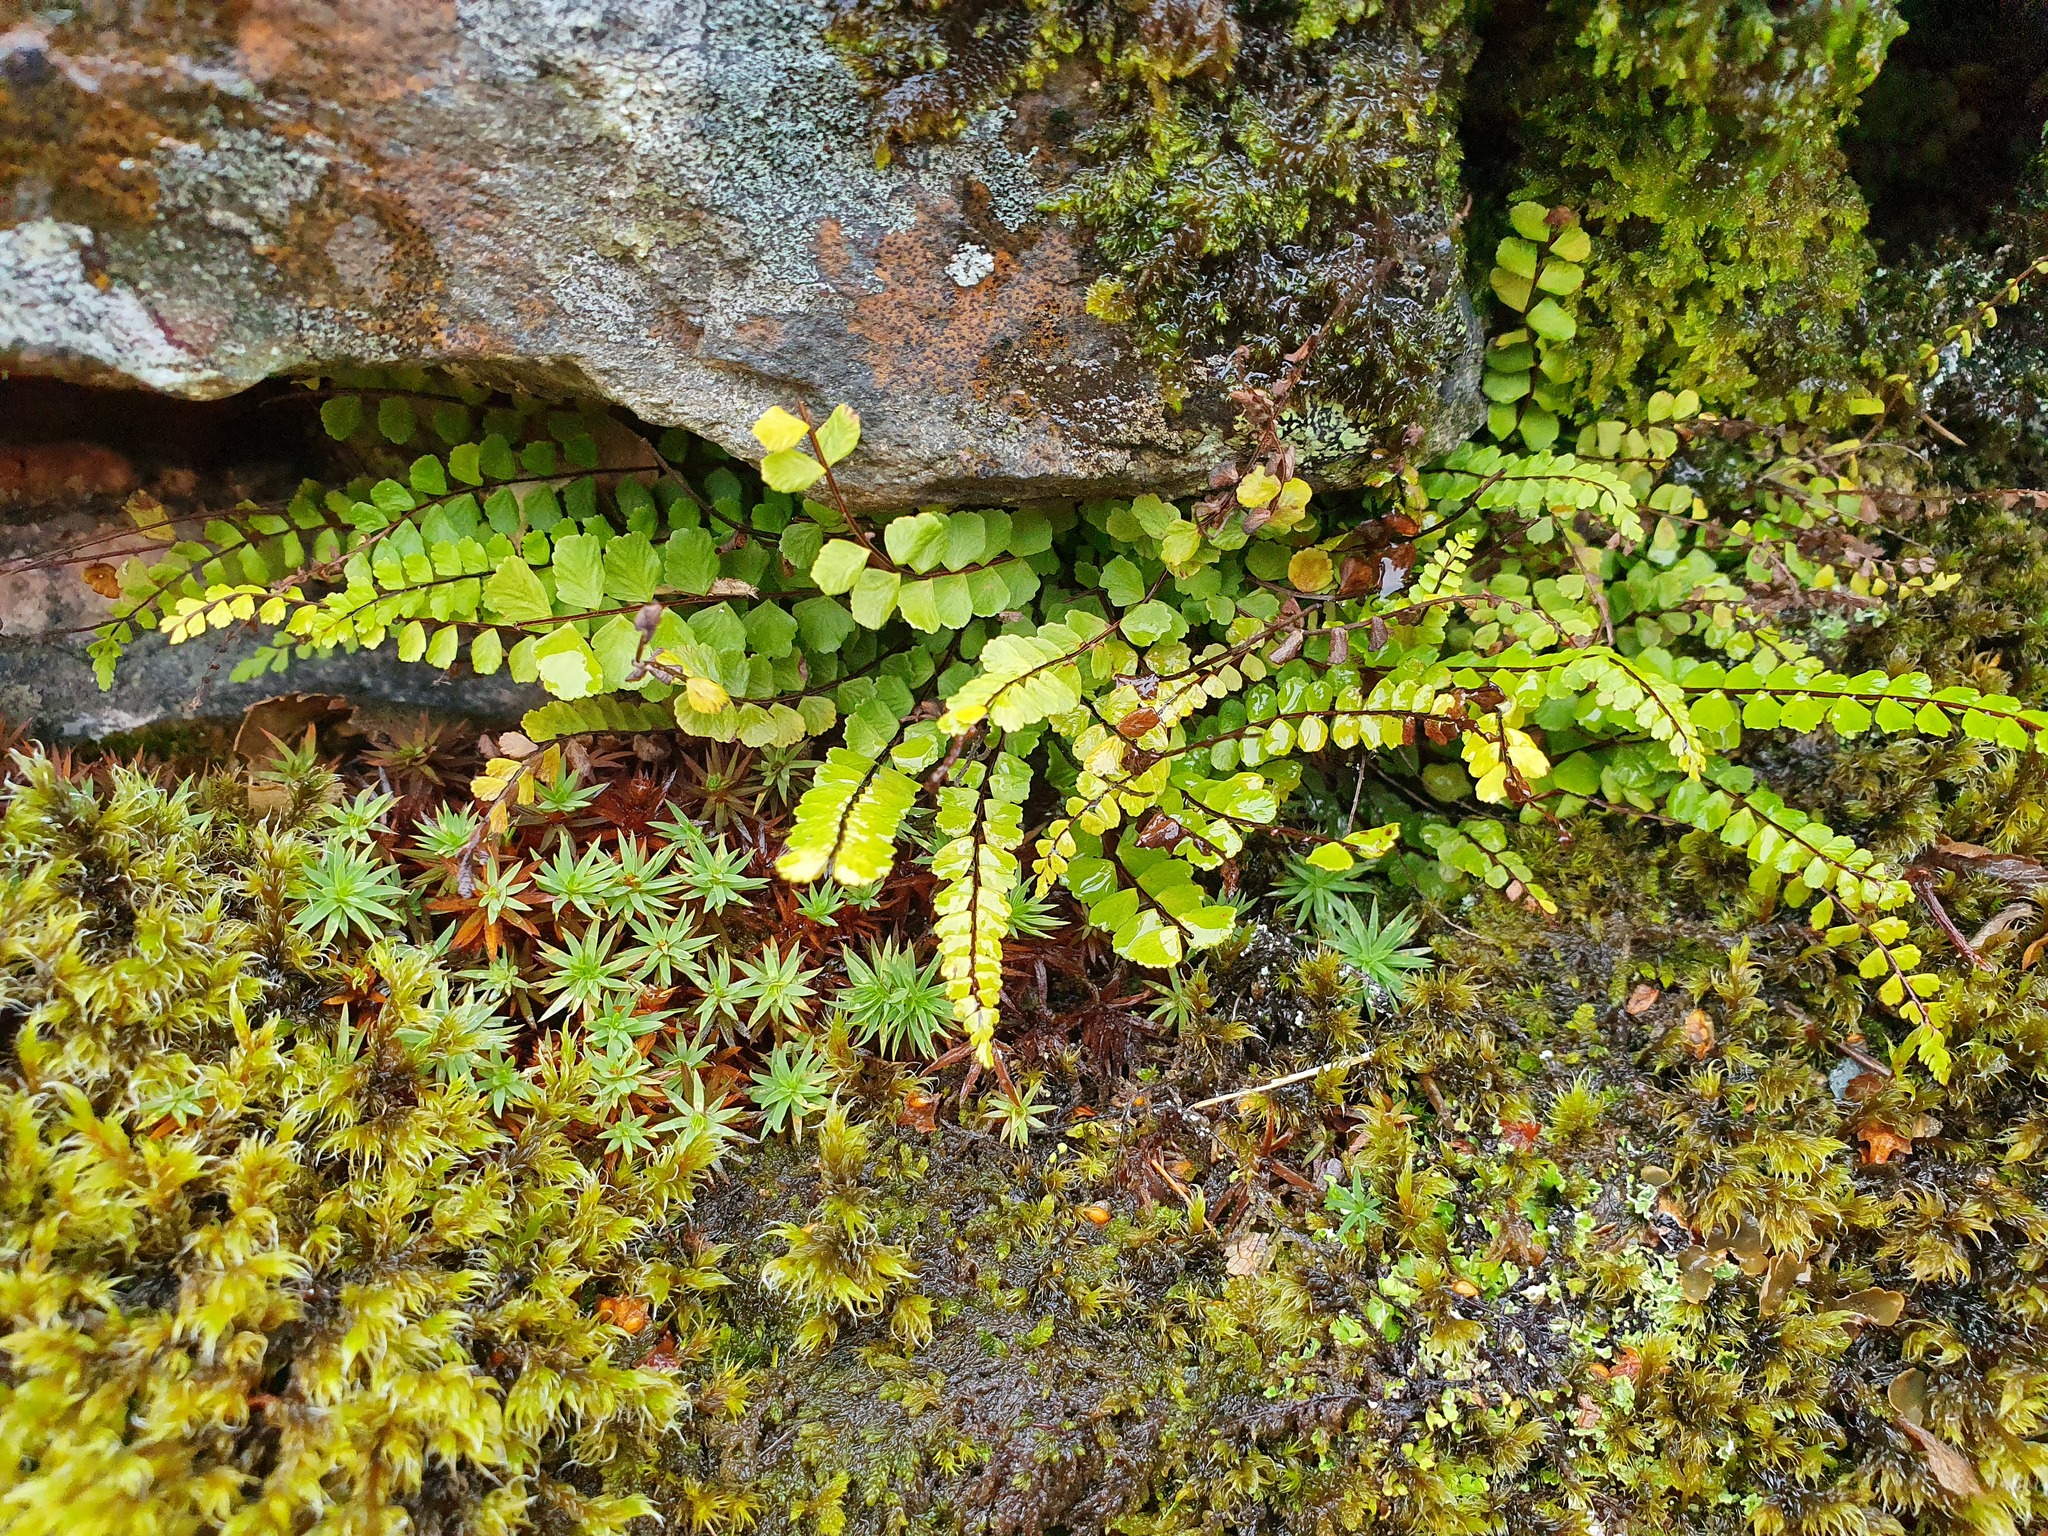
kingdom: Plantae
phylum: Tracheophyta
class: Polypodiopsida
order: Polypodiales
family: Aspleniaceae
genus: Asplenium
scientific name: Asplenium trichomanes
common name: Maidenhair spleenwort
